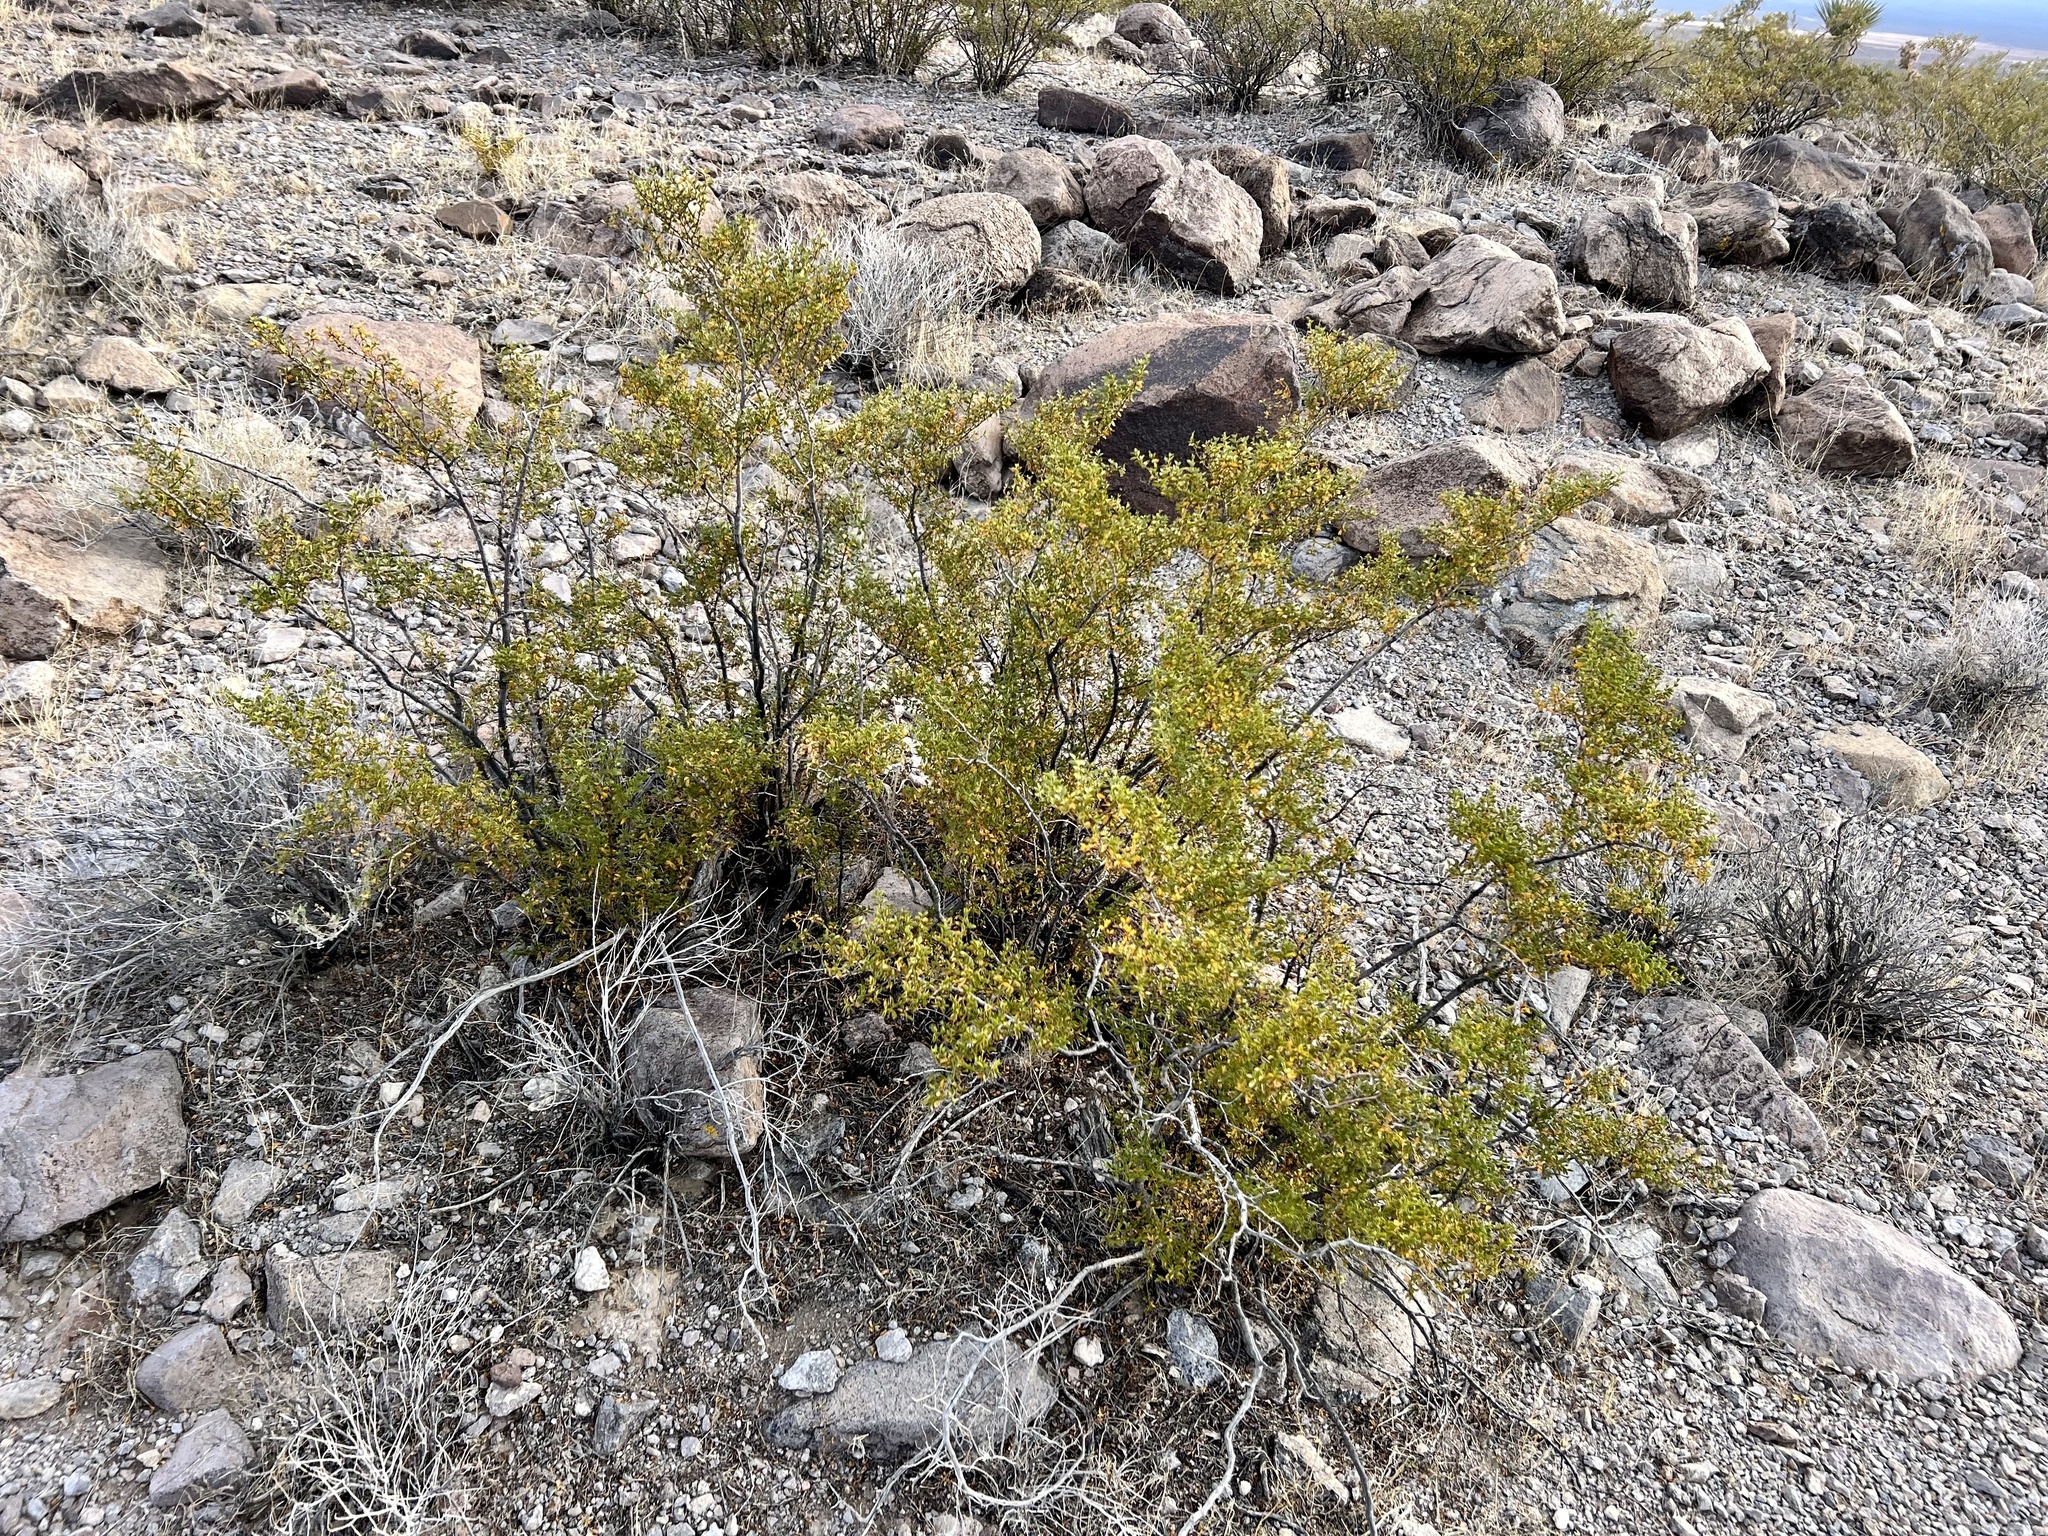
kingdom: Plantae
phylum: Tracheophyta
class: Magnoliopsida
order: Zygophyllales
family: Zygophyllaceae
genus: Larrea
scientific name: Larrea tridentata
